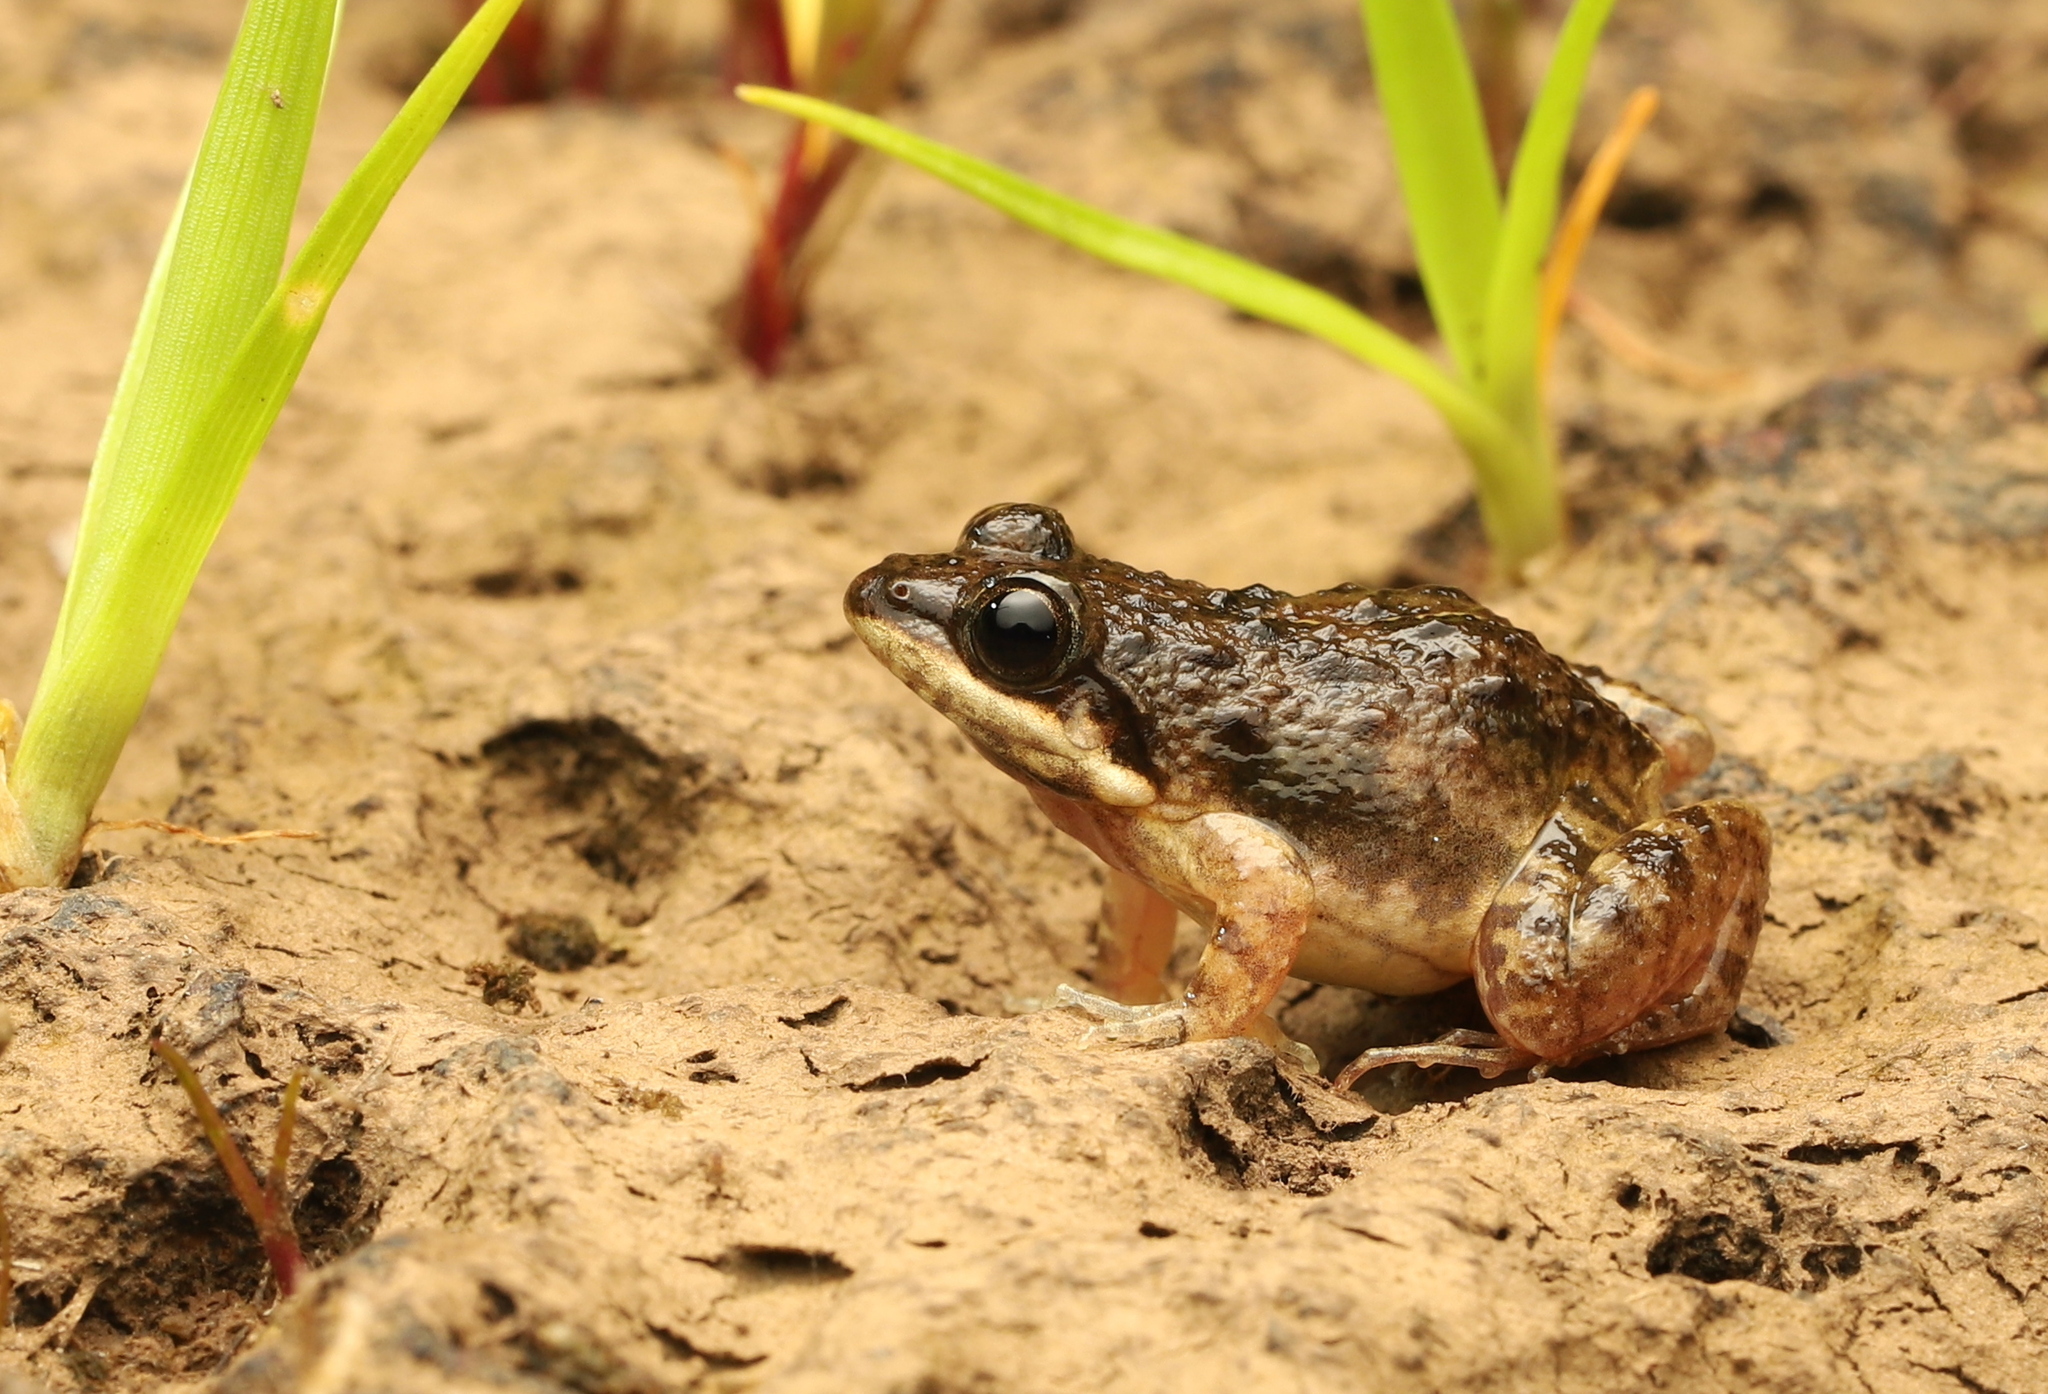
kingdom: Animalia
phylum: Chordata
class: Amphibia
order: Anura
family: Dicroglossidae
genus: Minervarya
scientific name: Minervarya gomantaki
